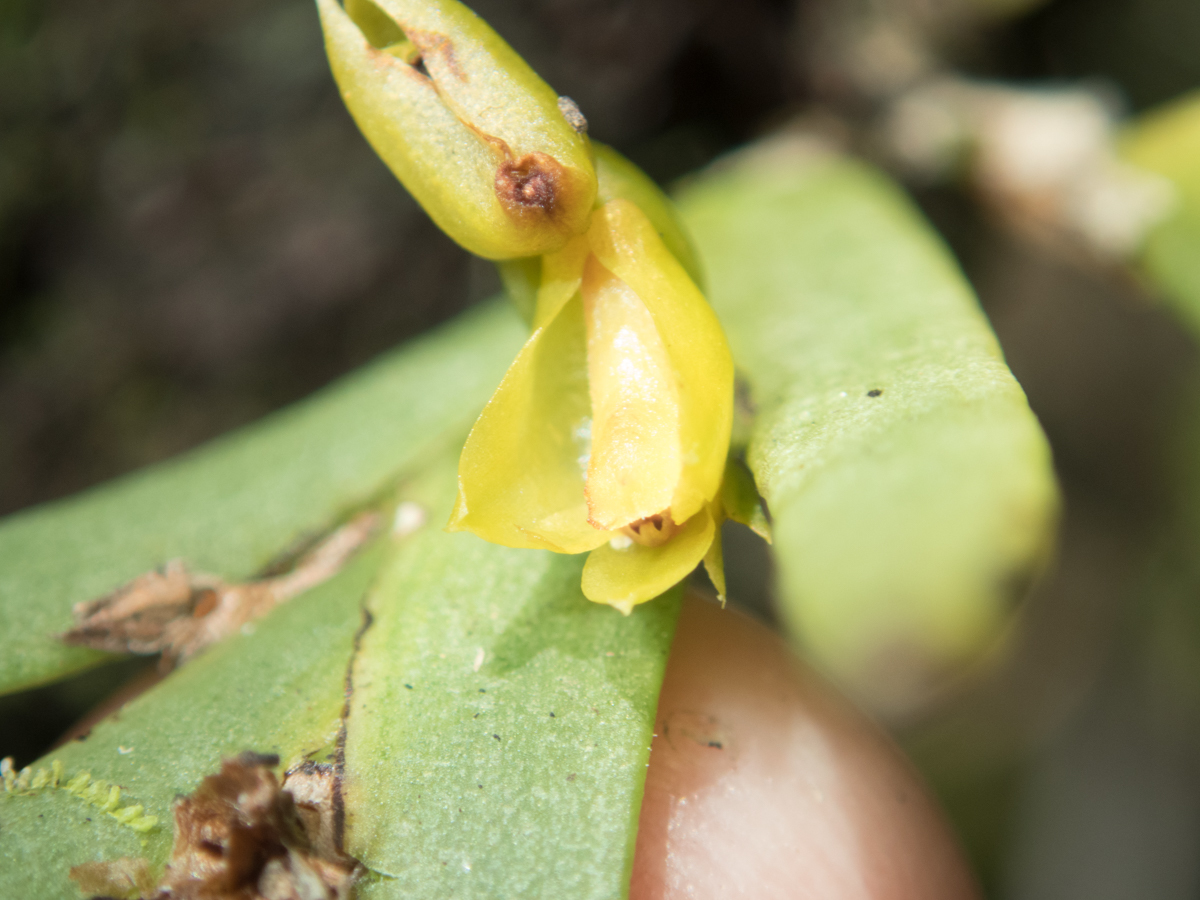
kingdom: Plantae
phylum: Tracheophyta
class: Liliopsida
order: Asparagales
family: Orchidaceae
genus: Oxystophyllum
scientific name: Oxystophyllum carnosum
